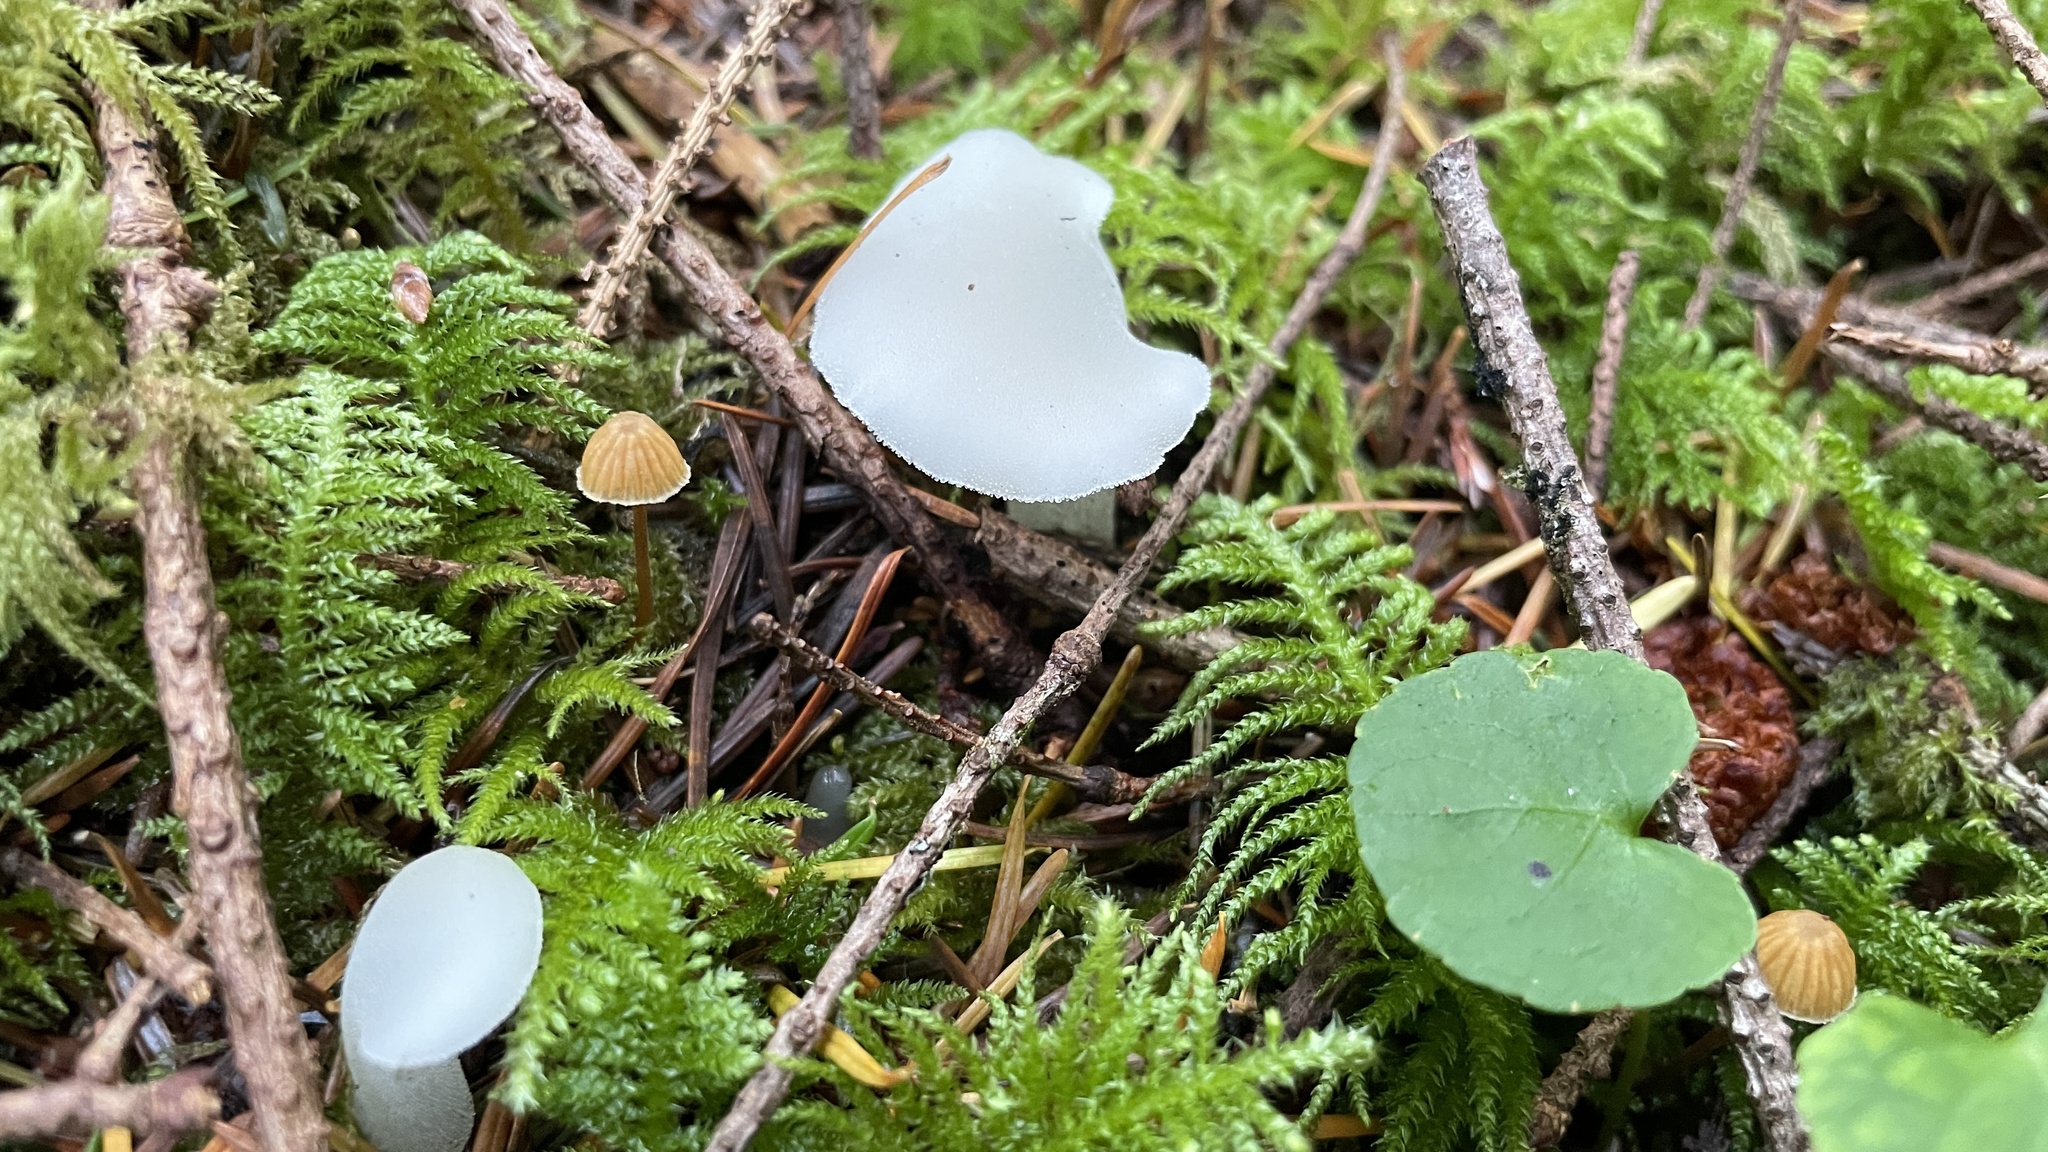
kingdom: Fungi
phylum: Basidiomycota
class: Agaricomycetes
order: Auriculariales
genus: Pseudohydnum
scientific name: Pseudohydnum gelatinosum
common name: Jelly tongue
